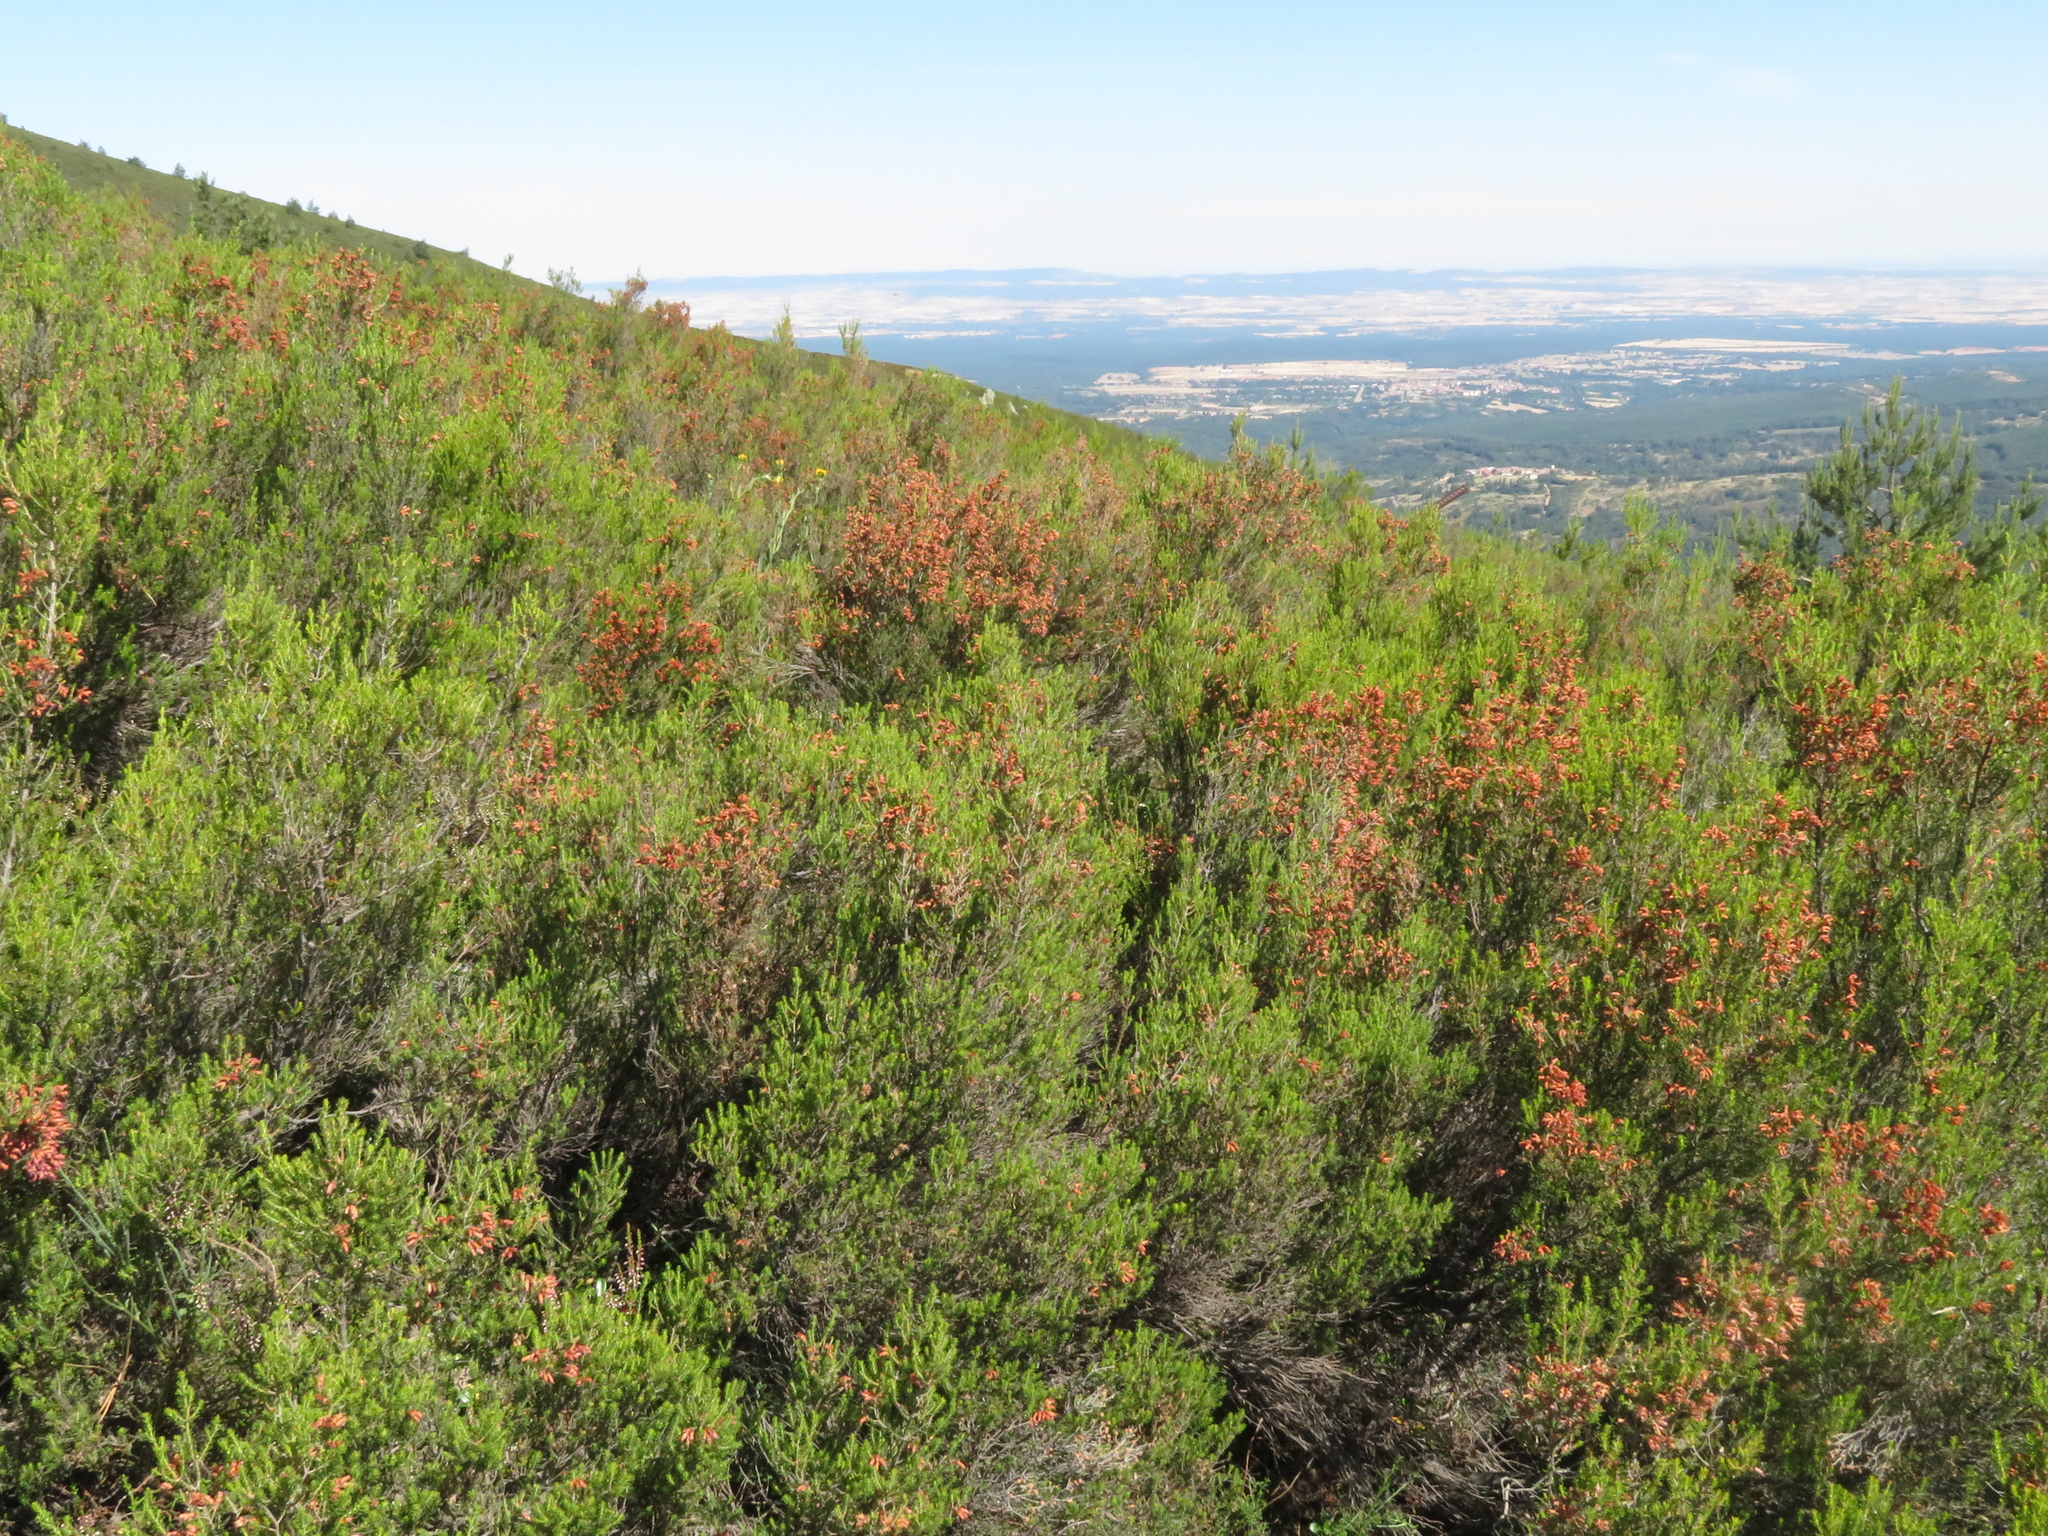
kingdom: Plantae
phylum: Tracheophyta
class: Magnoliopsida
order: Ericales
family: Ericaceae
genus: Erica
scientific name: Erica australis
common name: Spanish heath
